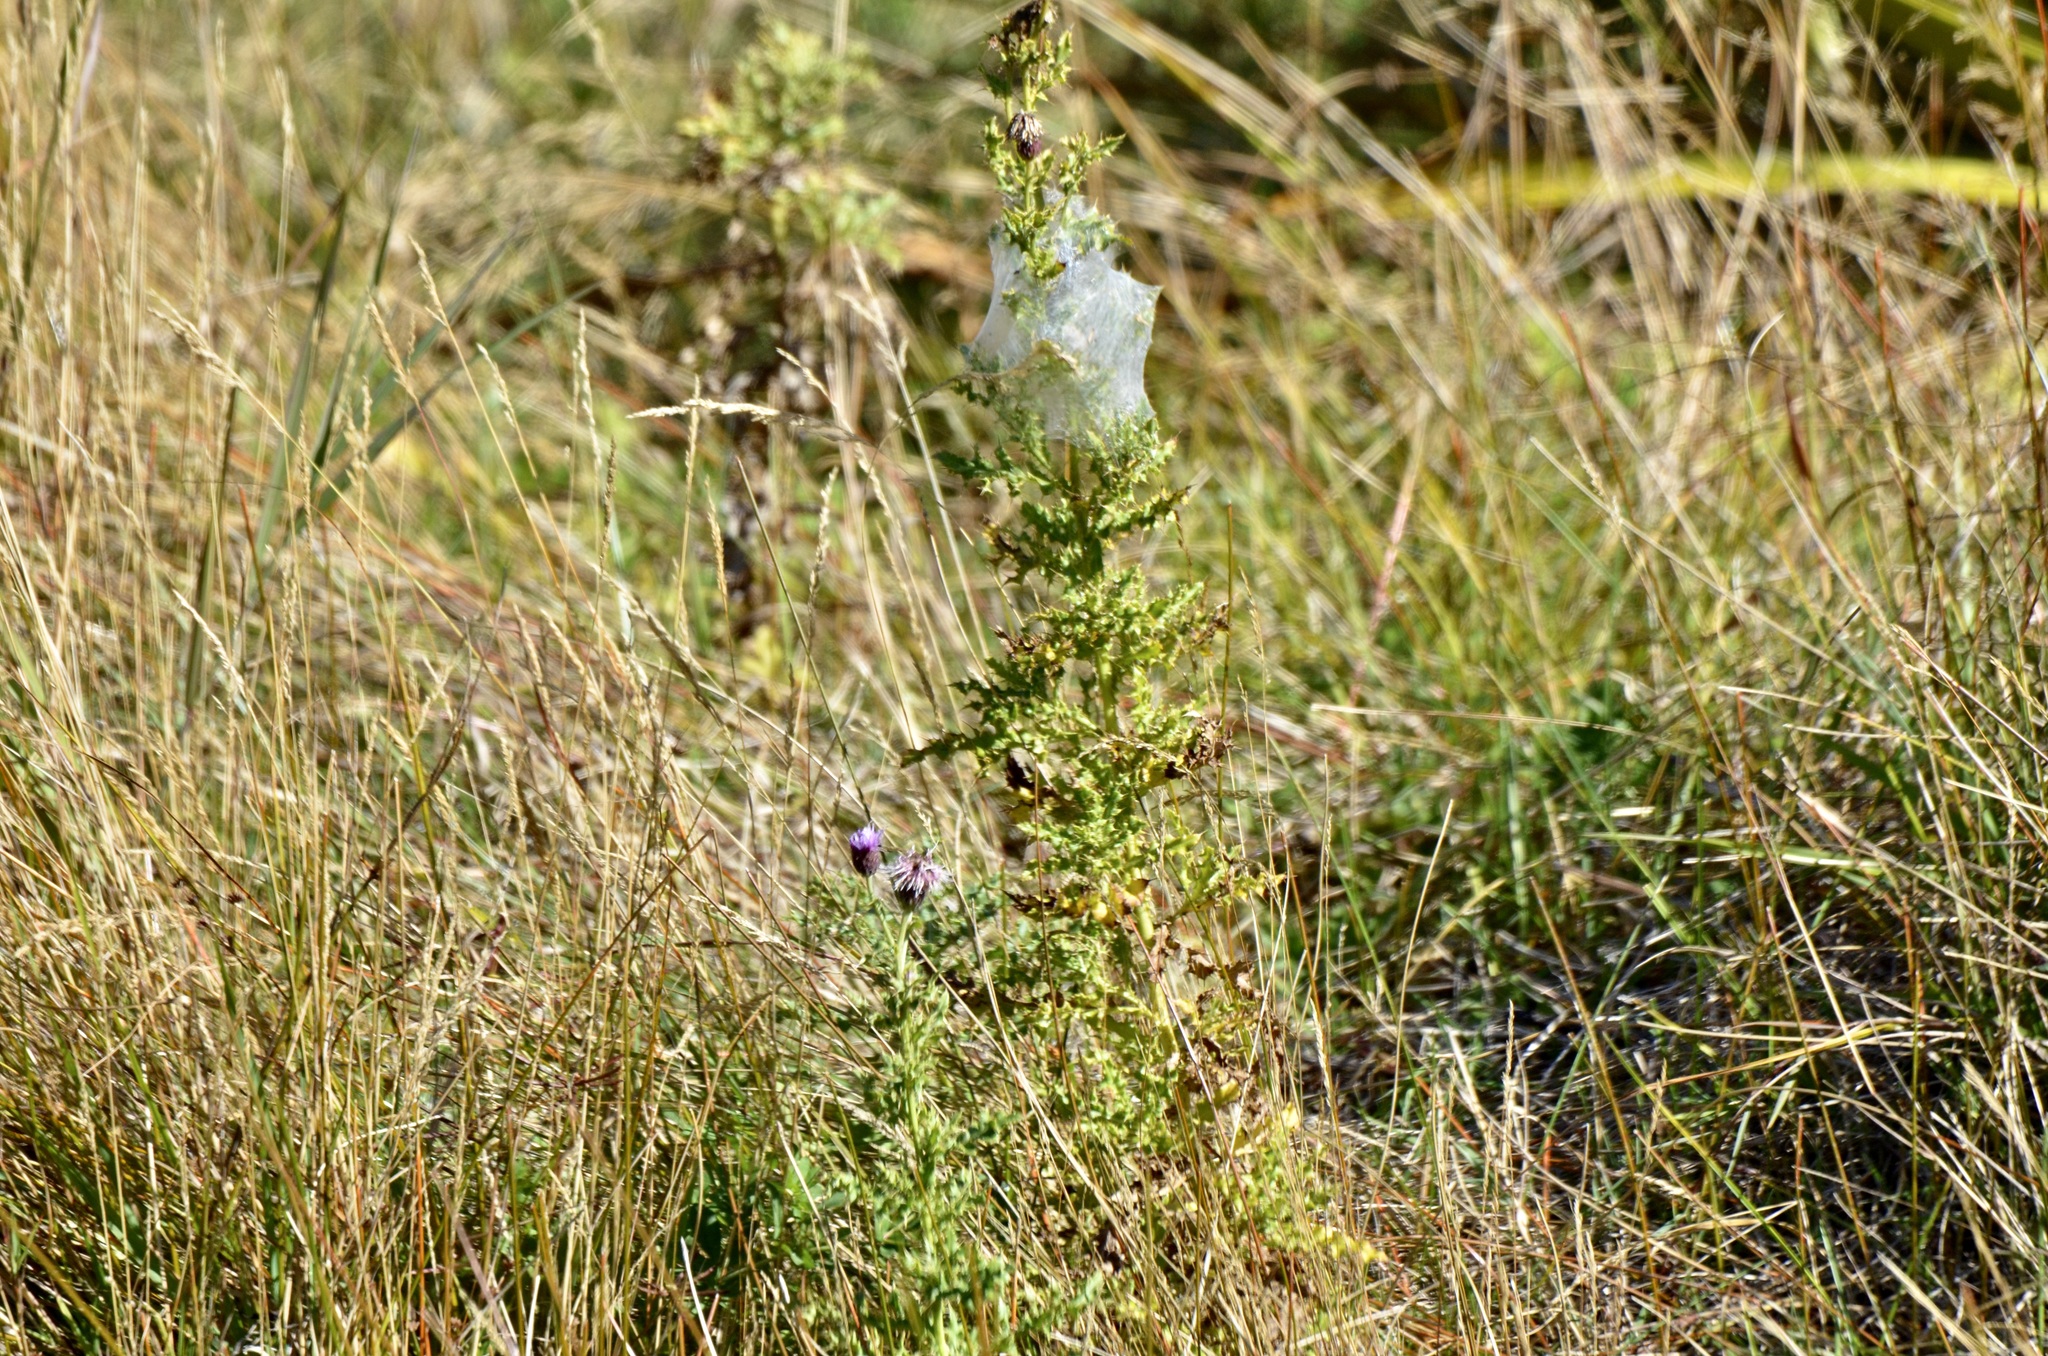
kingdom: Animalia
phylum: Arthropoda
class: Arachnida
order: Araneae
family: Pisauridae
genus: Dolomedes
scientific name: Dolomedes minor
